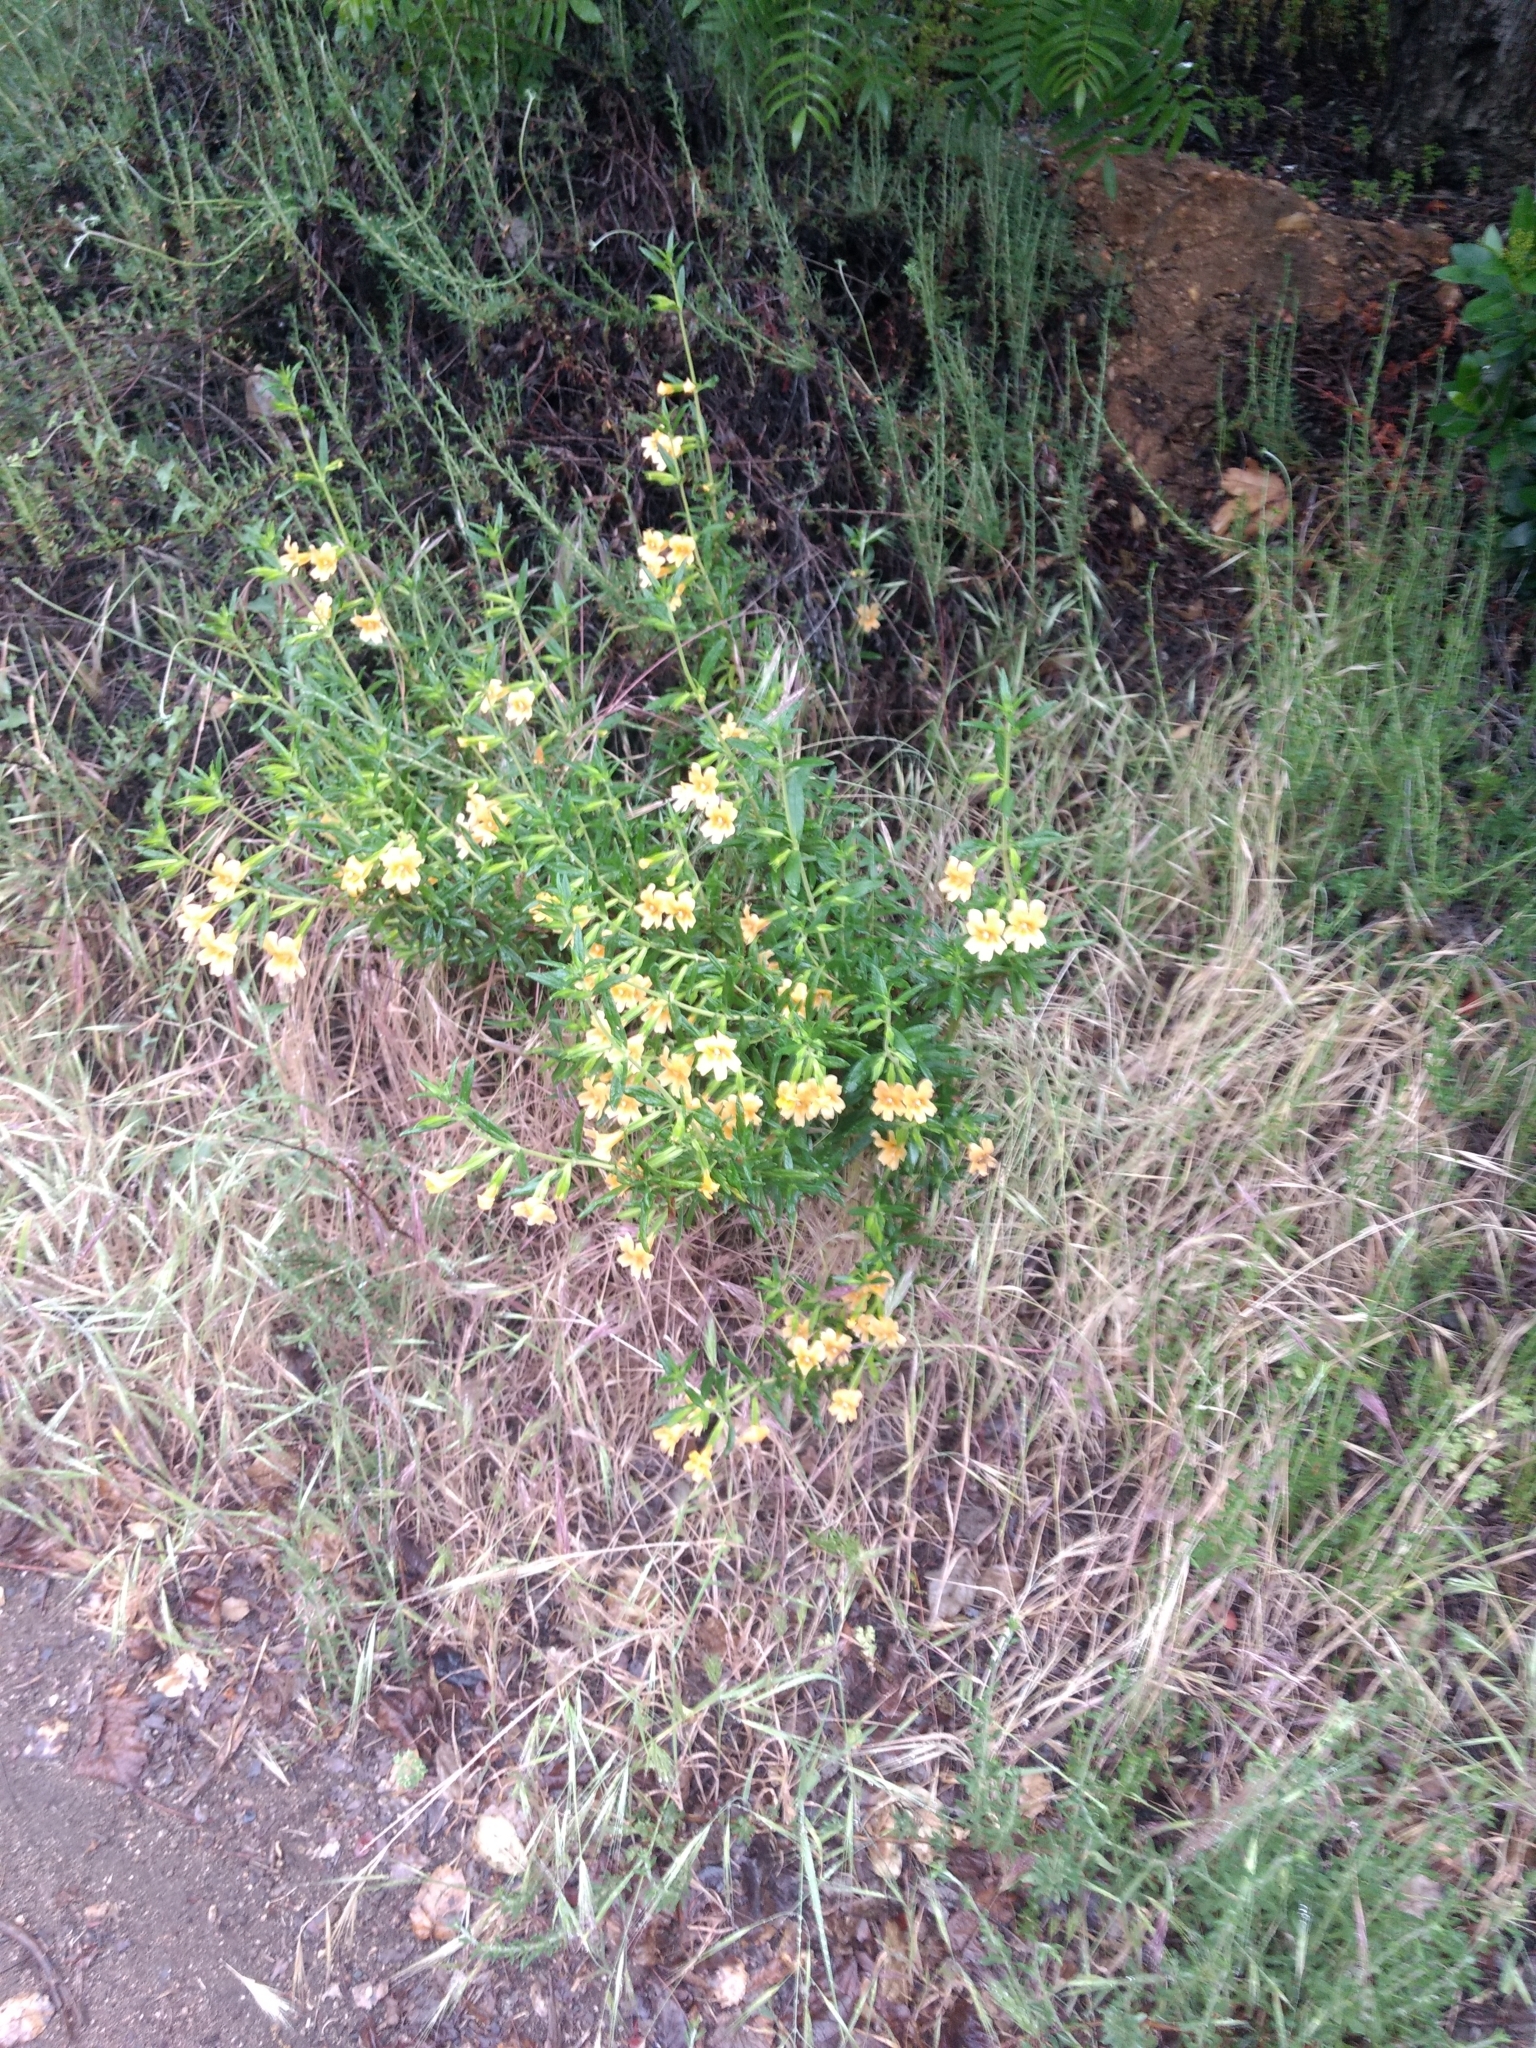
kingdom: Plantae
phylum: Tracheophyta
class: Magnoliopsida
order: Lamiales
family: Phrymaceae
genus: Diplacus
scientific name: Diplacus longiflorus
